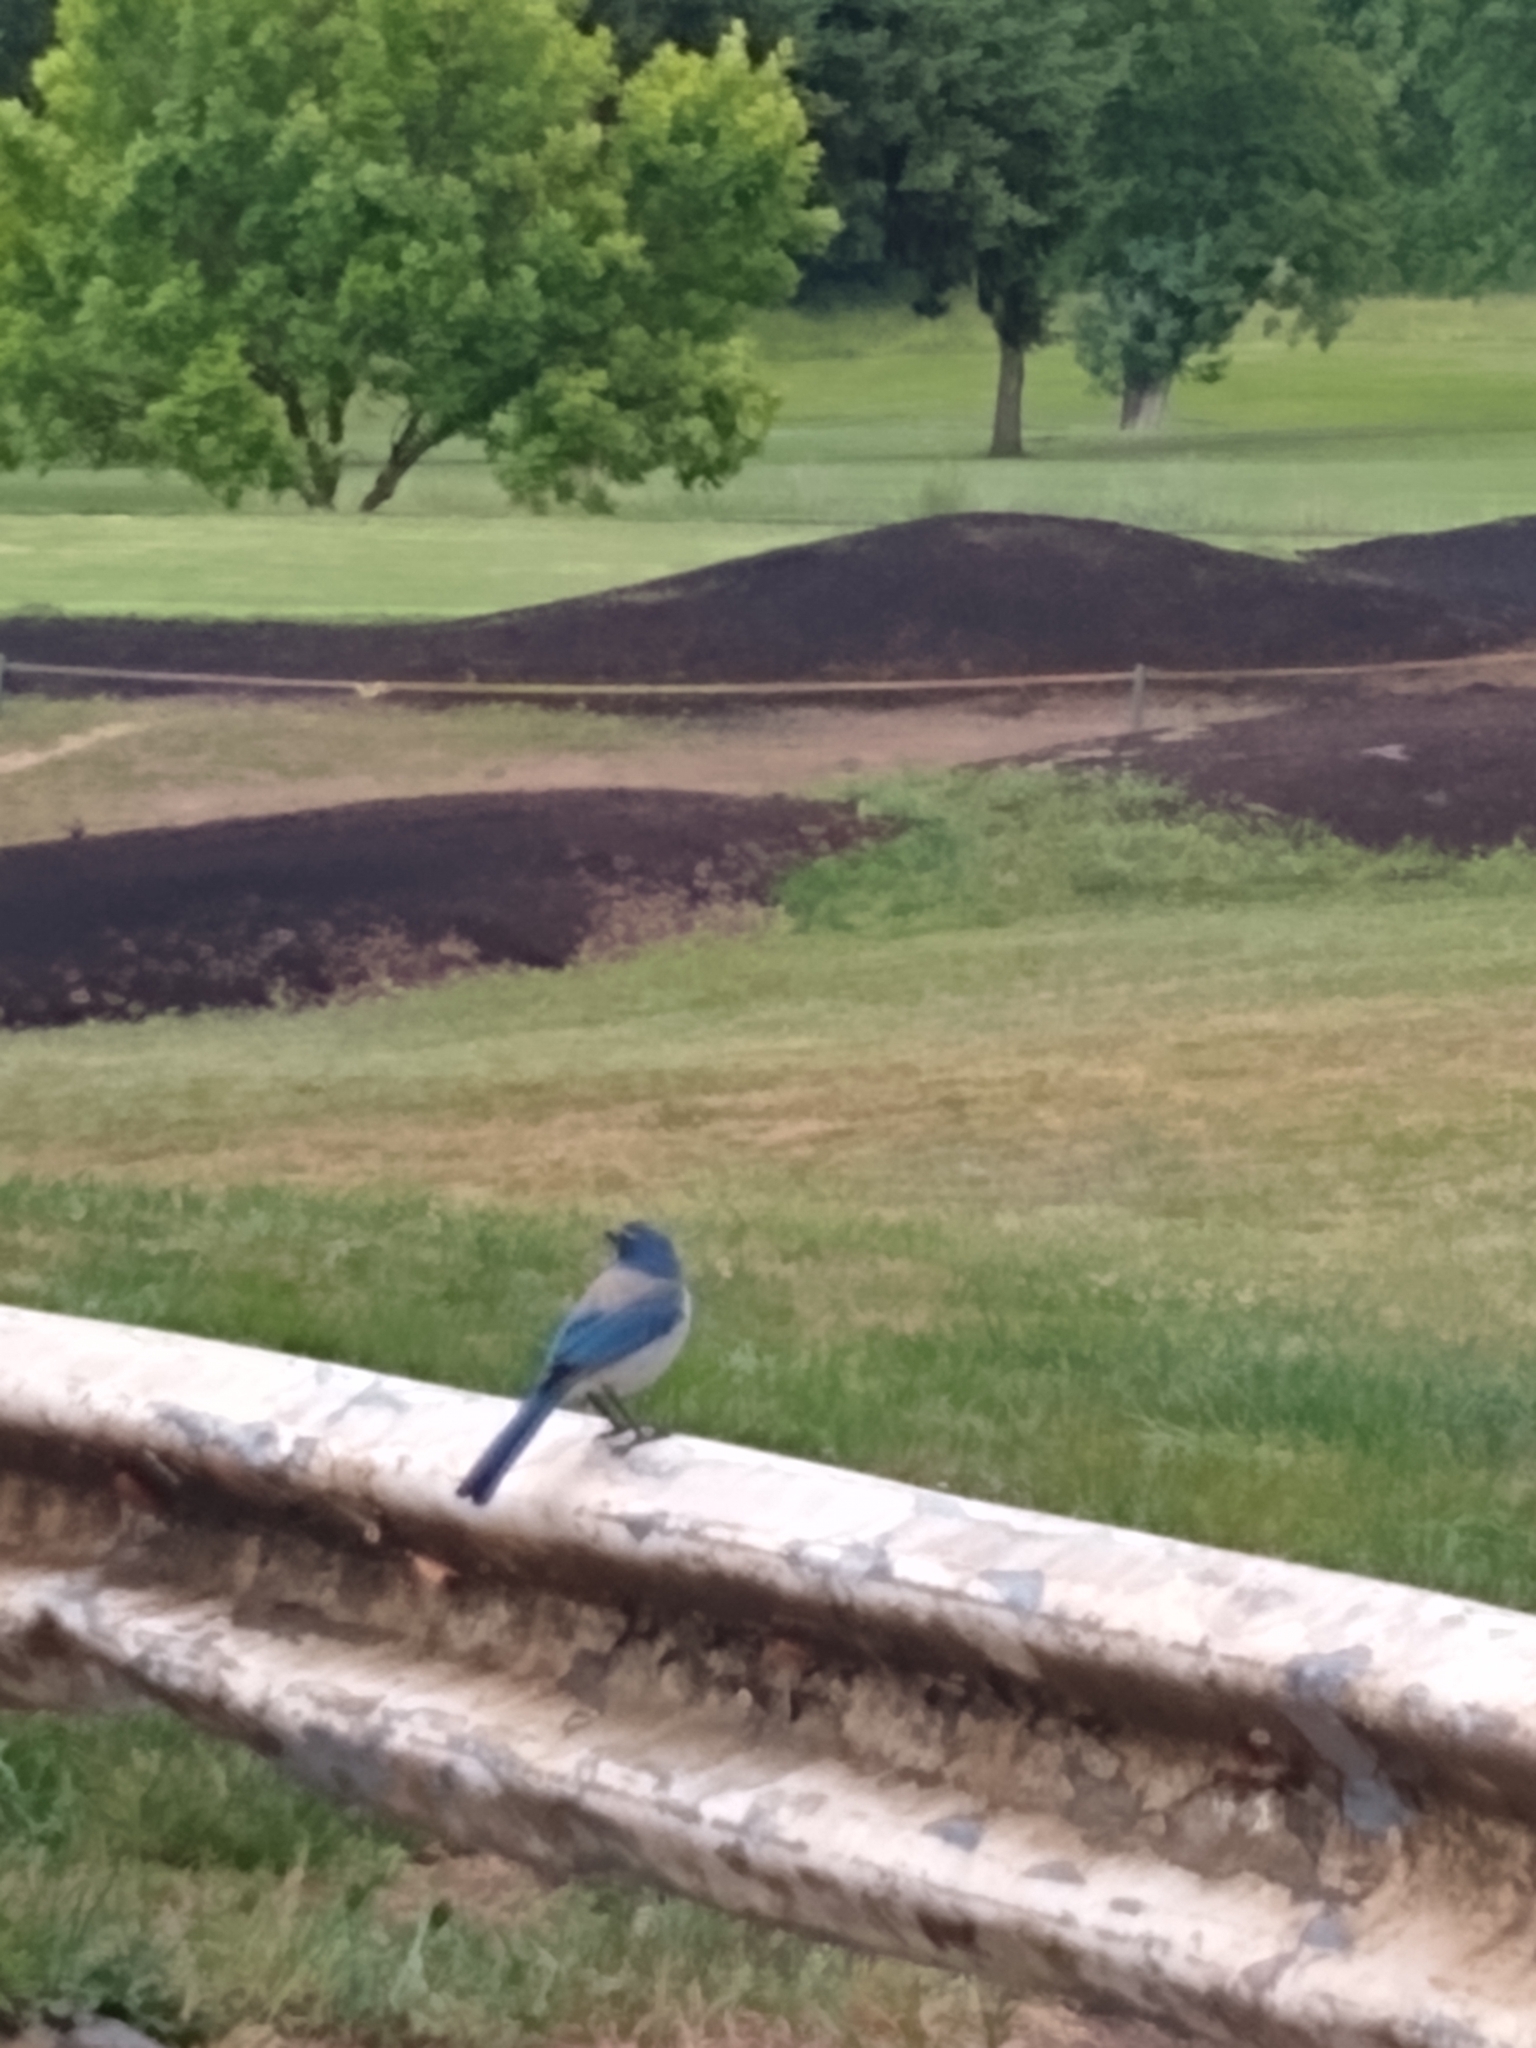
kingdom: Animalia
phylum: Chordata
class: Aves
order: Passeriformes
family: Corvidae
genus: Aphelocoma
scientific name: Aphelocoma californica
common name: California scrub-jay
